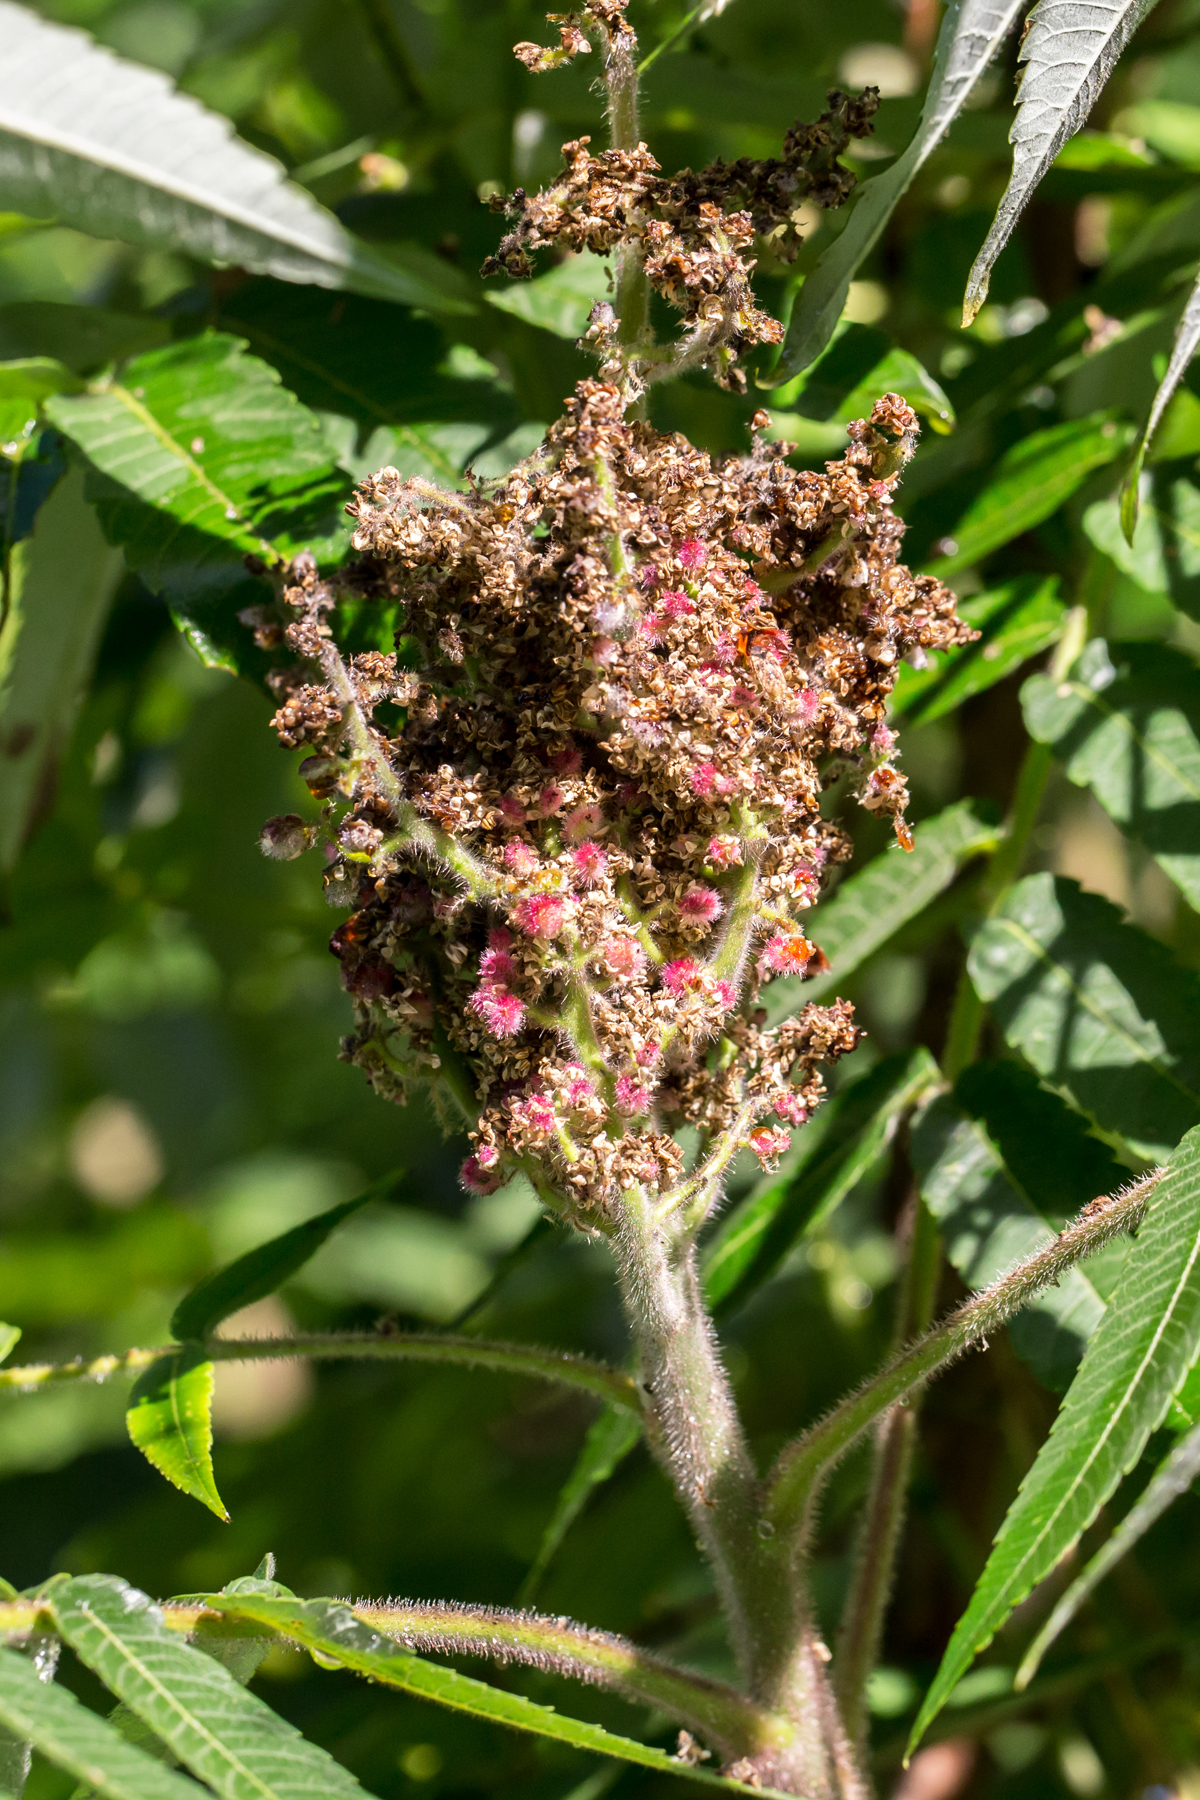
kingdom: Plantae
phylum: Tracheophyta
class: Magnoliopsida
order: Sapindales
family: Anacardiaceae
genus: Rhus
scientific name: Rhus typhina
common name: Staghorn sumac
